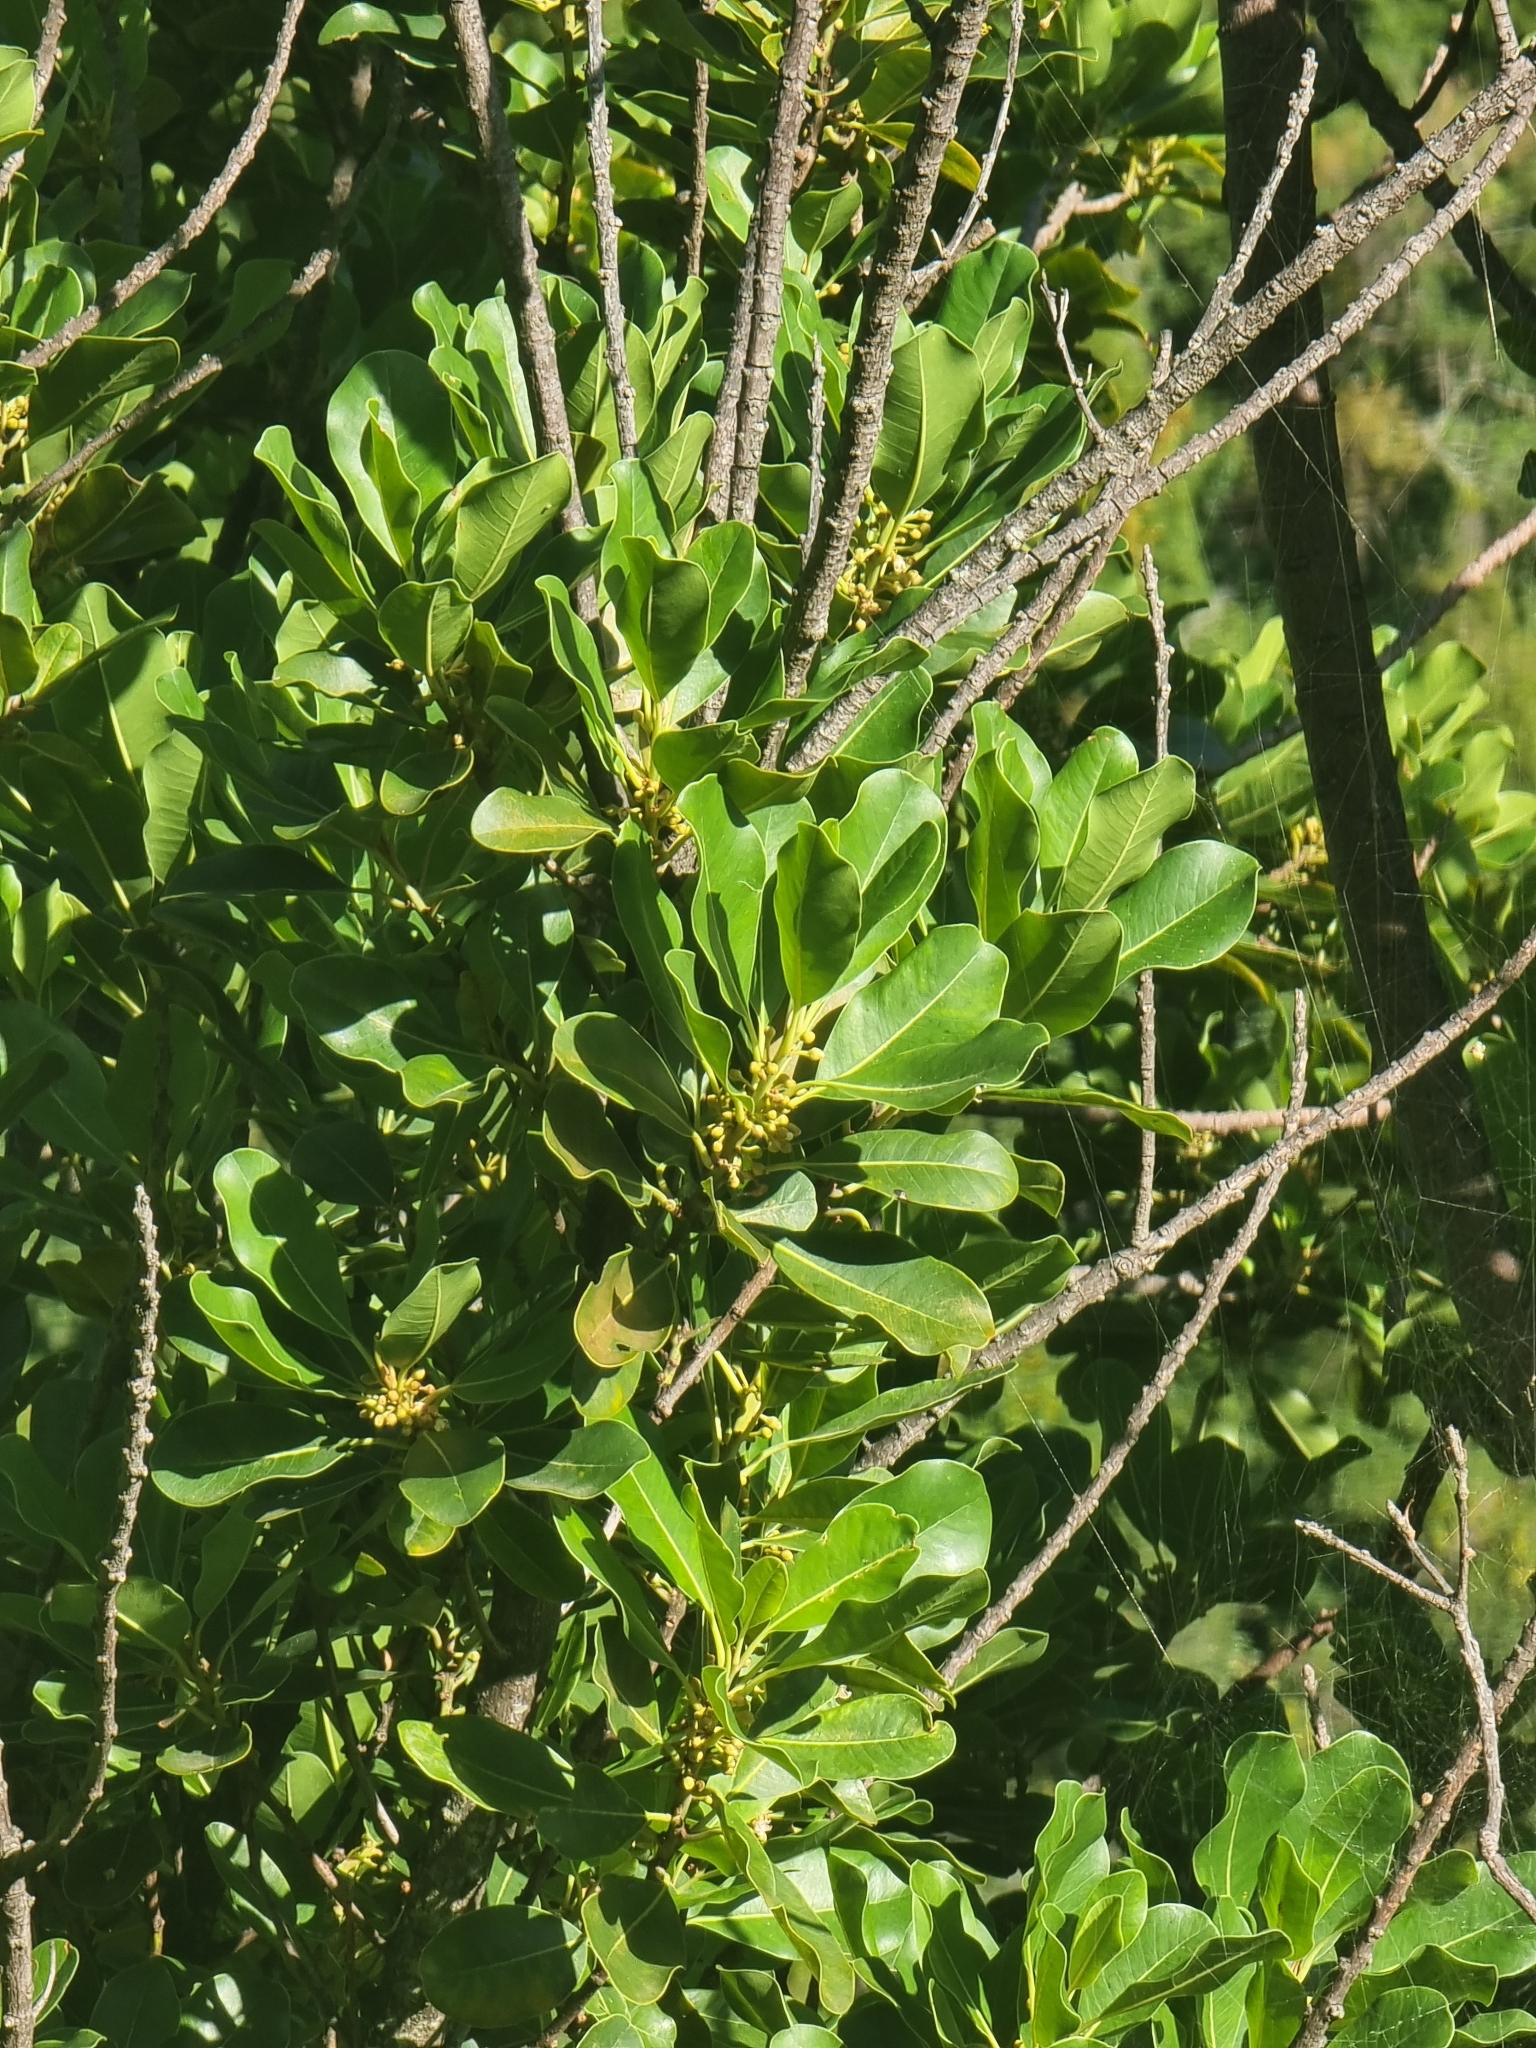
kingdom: Plantae
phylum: Tracheophyta
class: Magnoliopsida
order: Ericales
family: Sapotaceae
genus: Sideroxylon
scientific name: Sideroxylon mirmulans
